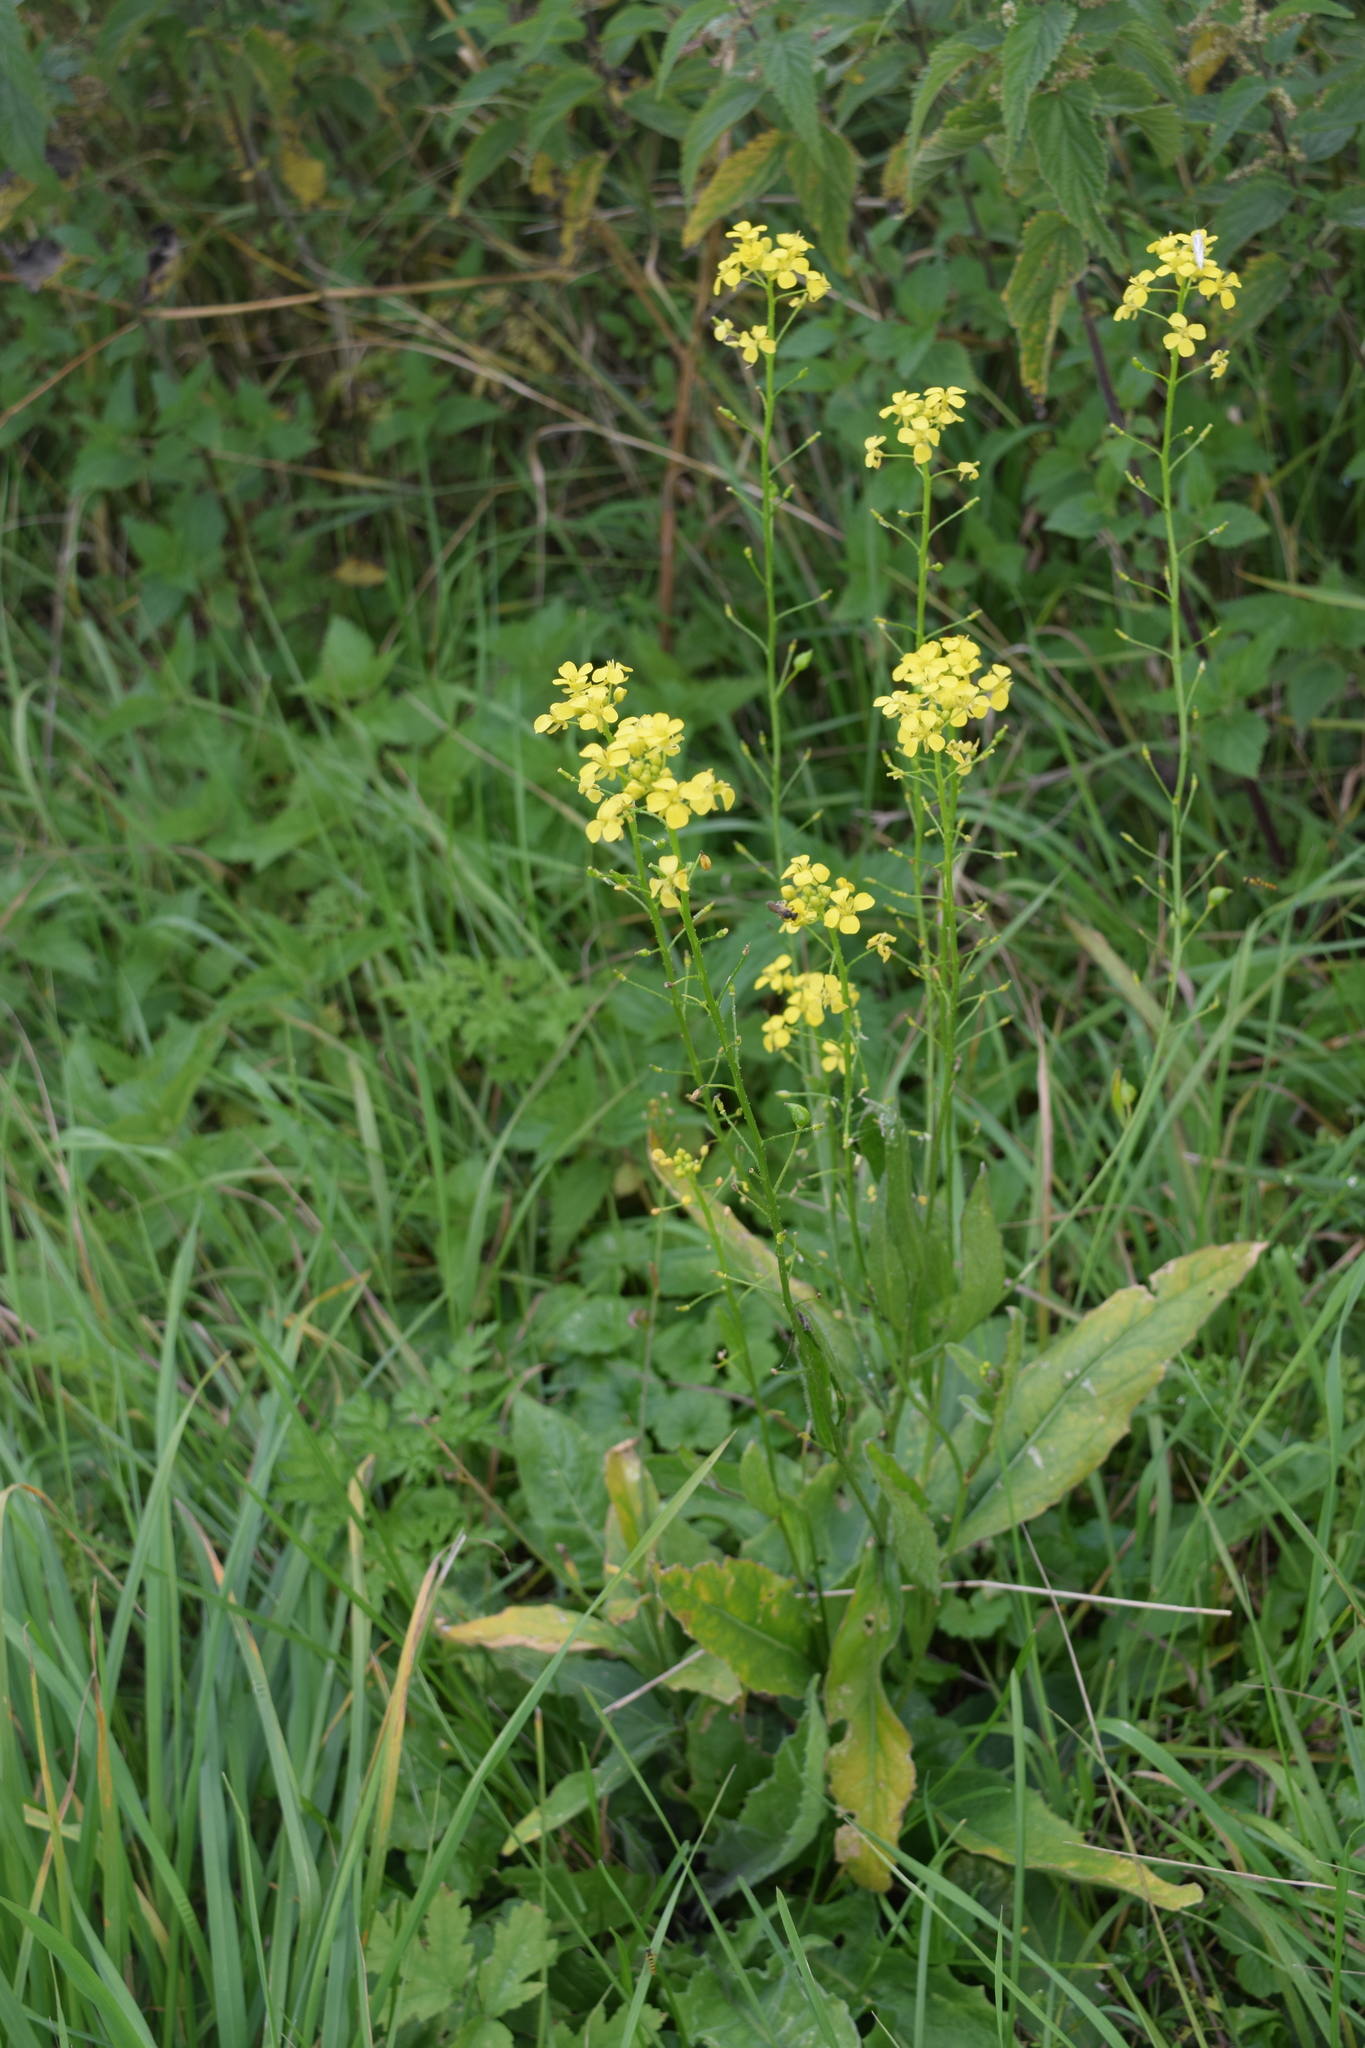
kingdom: Plantae
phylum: Tracheophyta
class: Magnoliopsida
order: Brassicales
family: Brassicaceae
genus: Bunias
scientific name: Bunias orientalis
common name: Warty-cabbage
